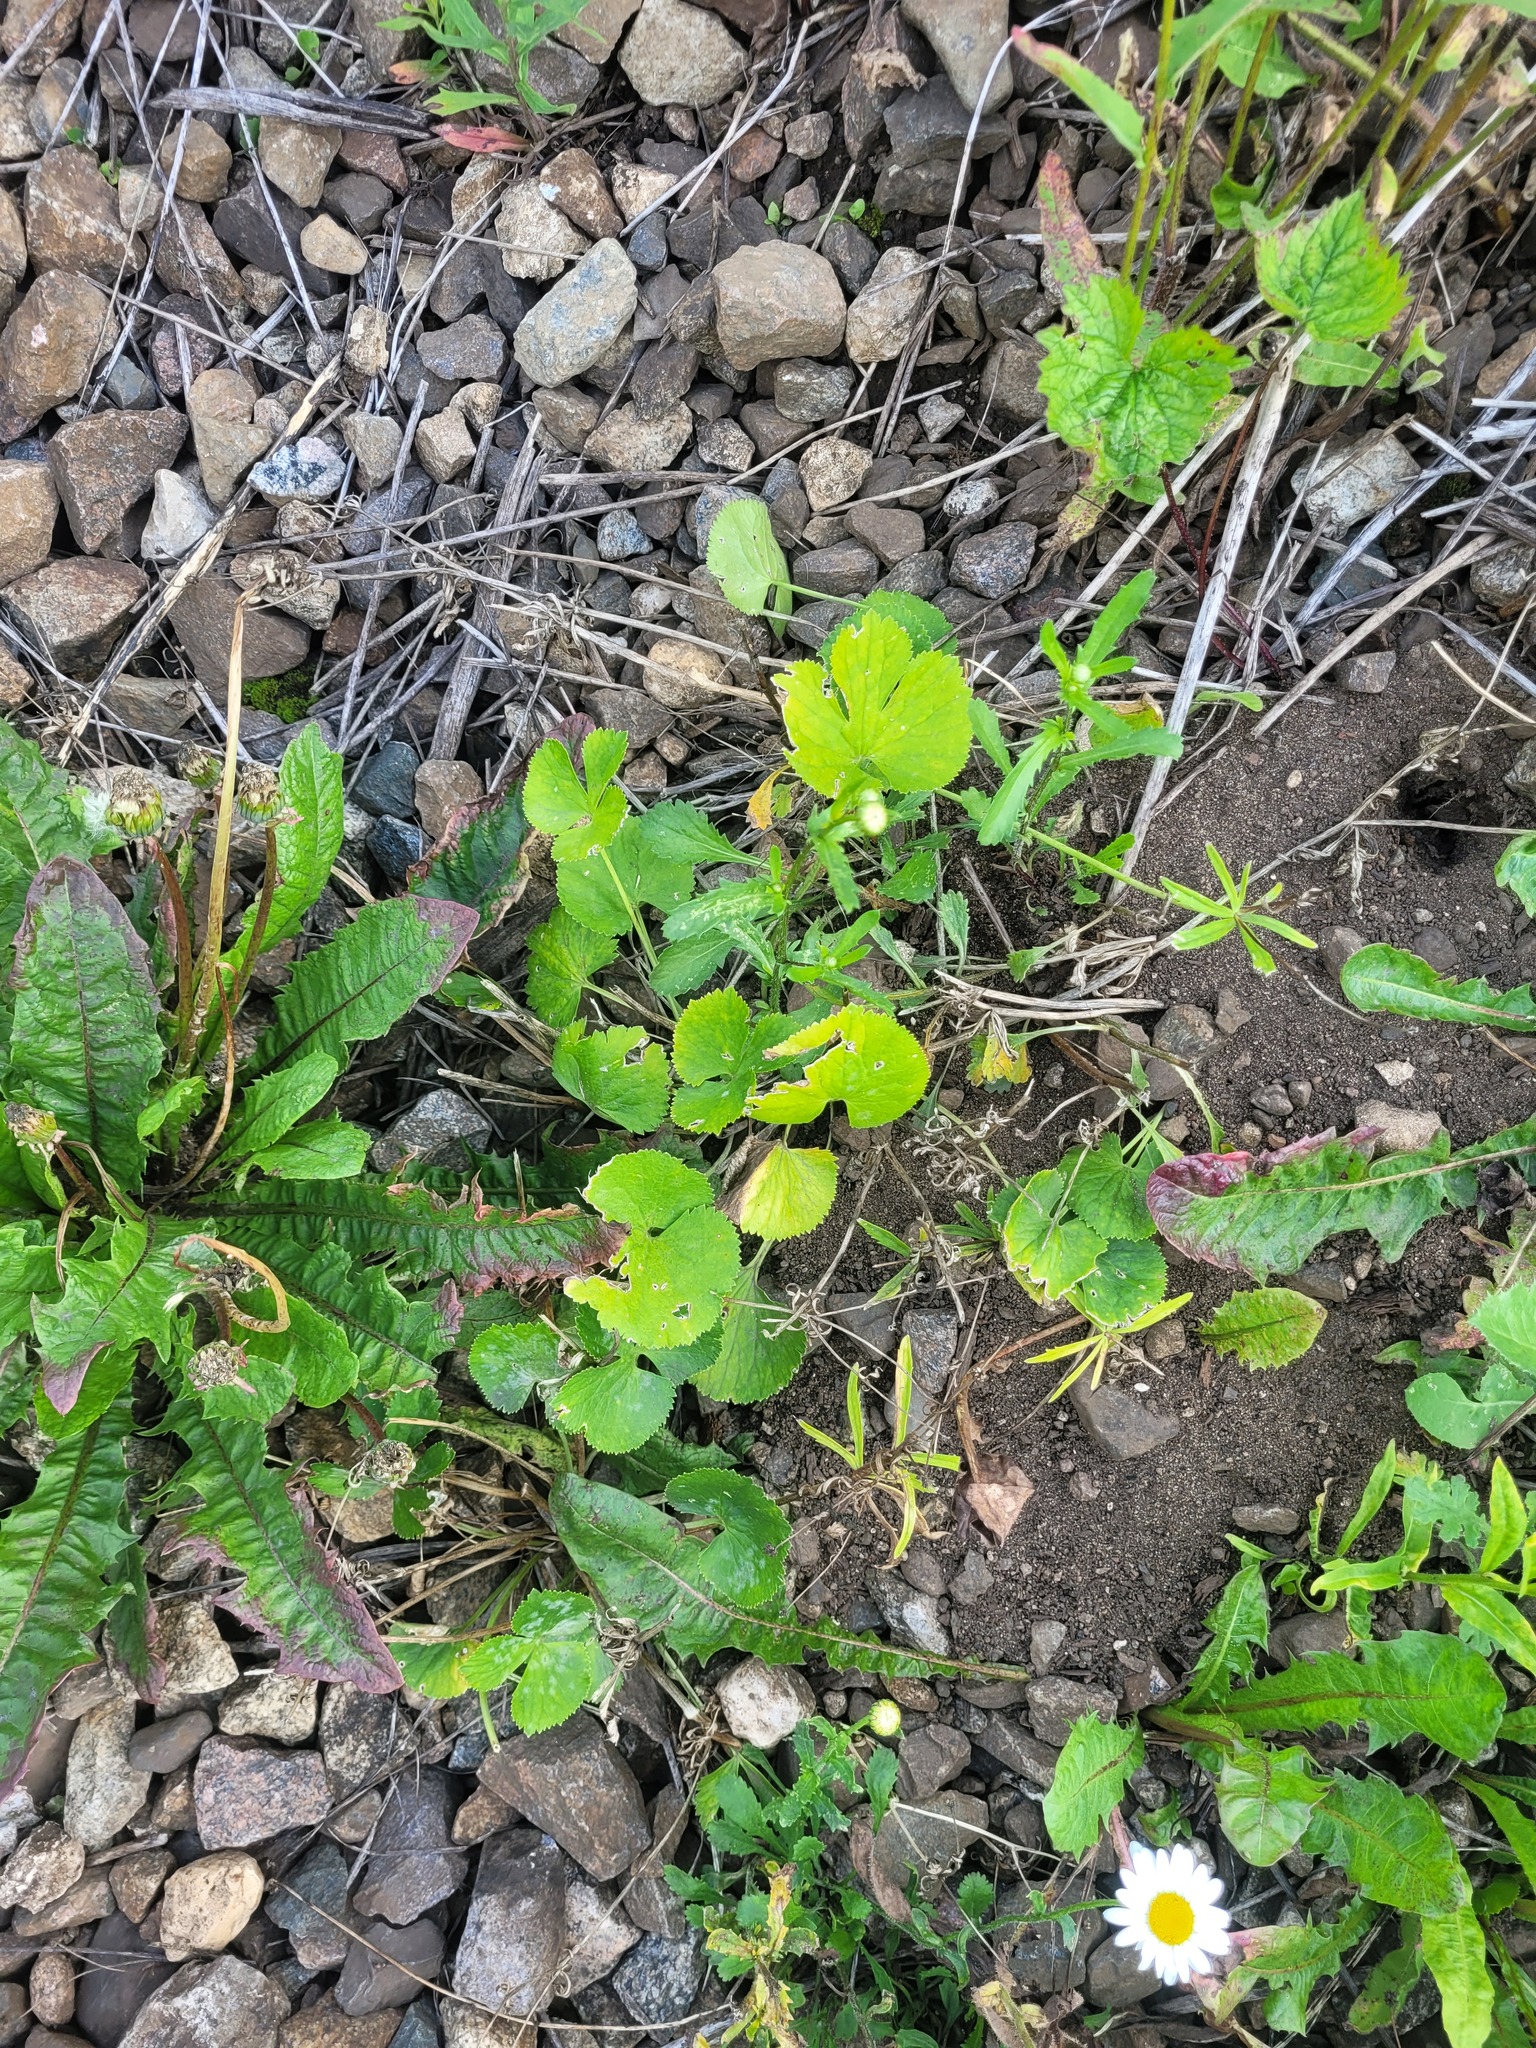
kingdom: Plantae
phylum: Tracheophyta
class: Magnoliopsida
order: Ranunculales
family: Ranunculaceae
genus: Ranunculus
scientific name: Ranunculus cassubicus
